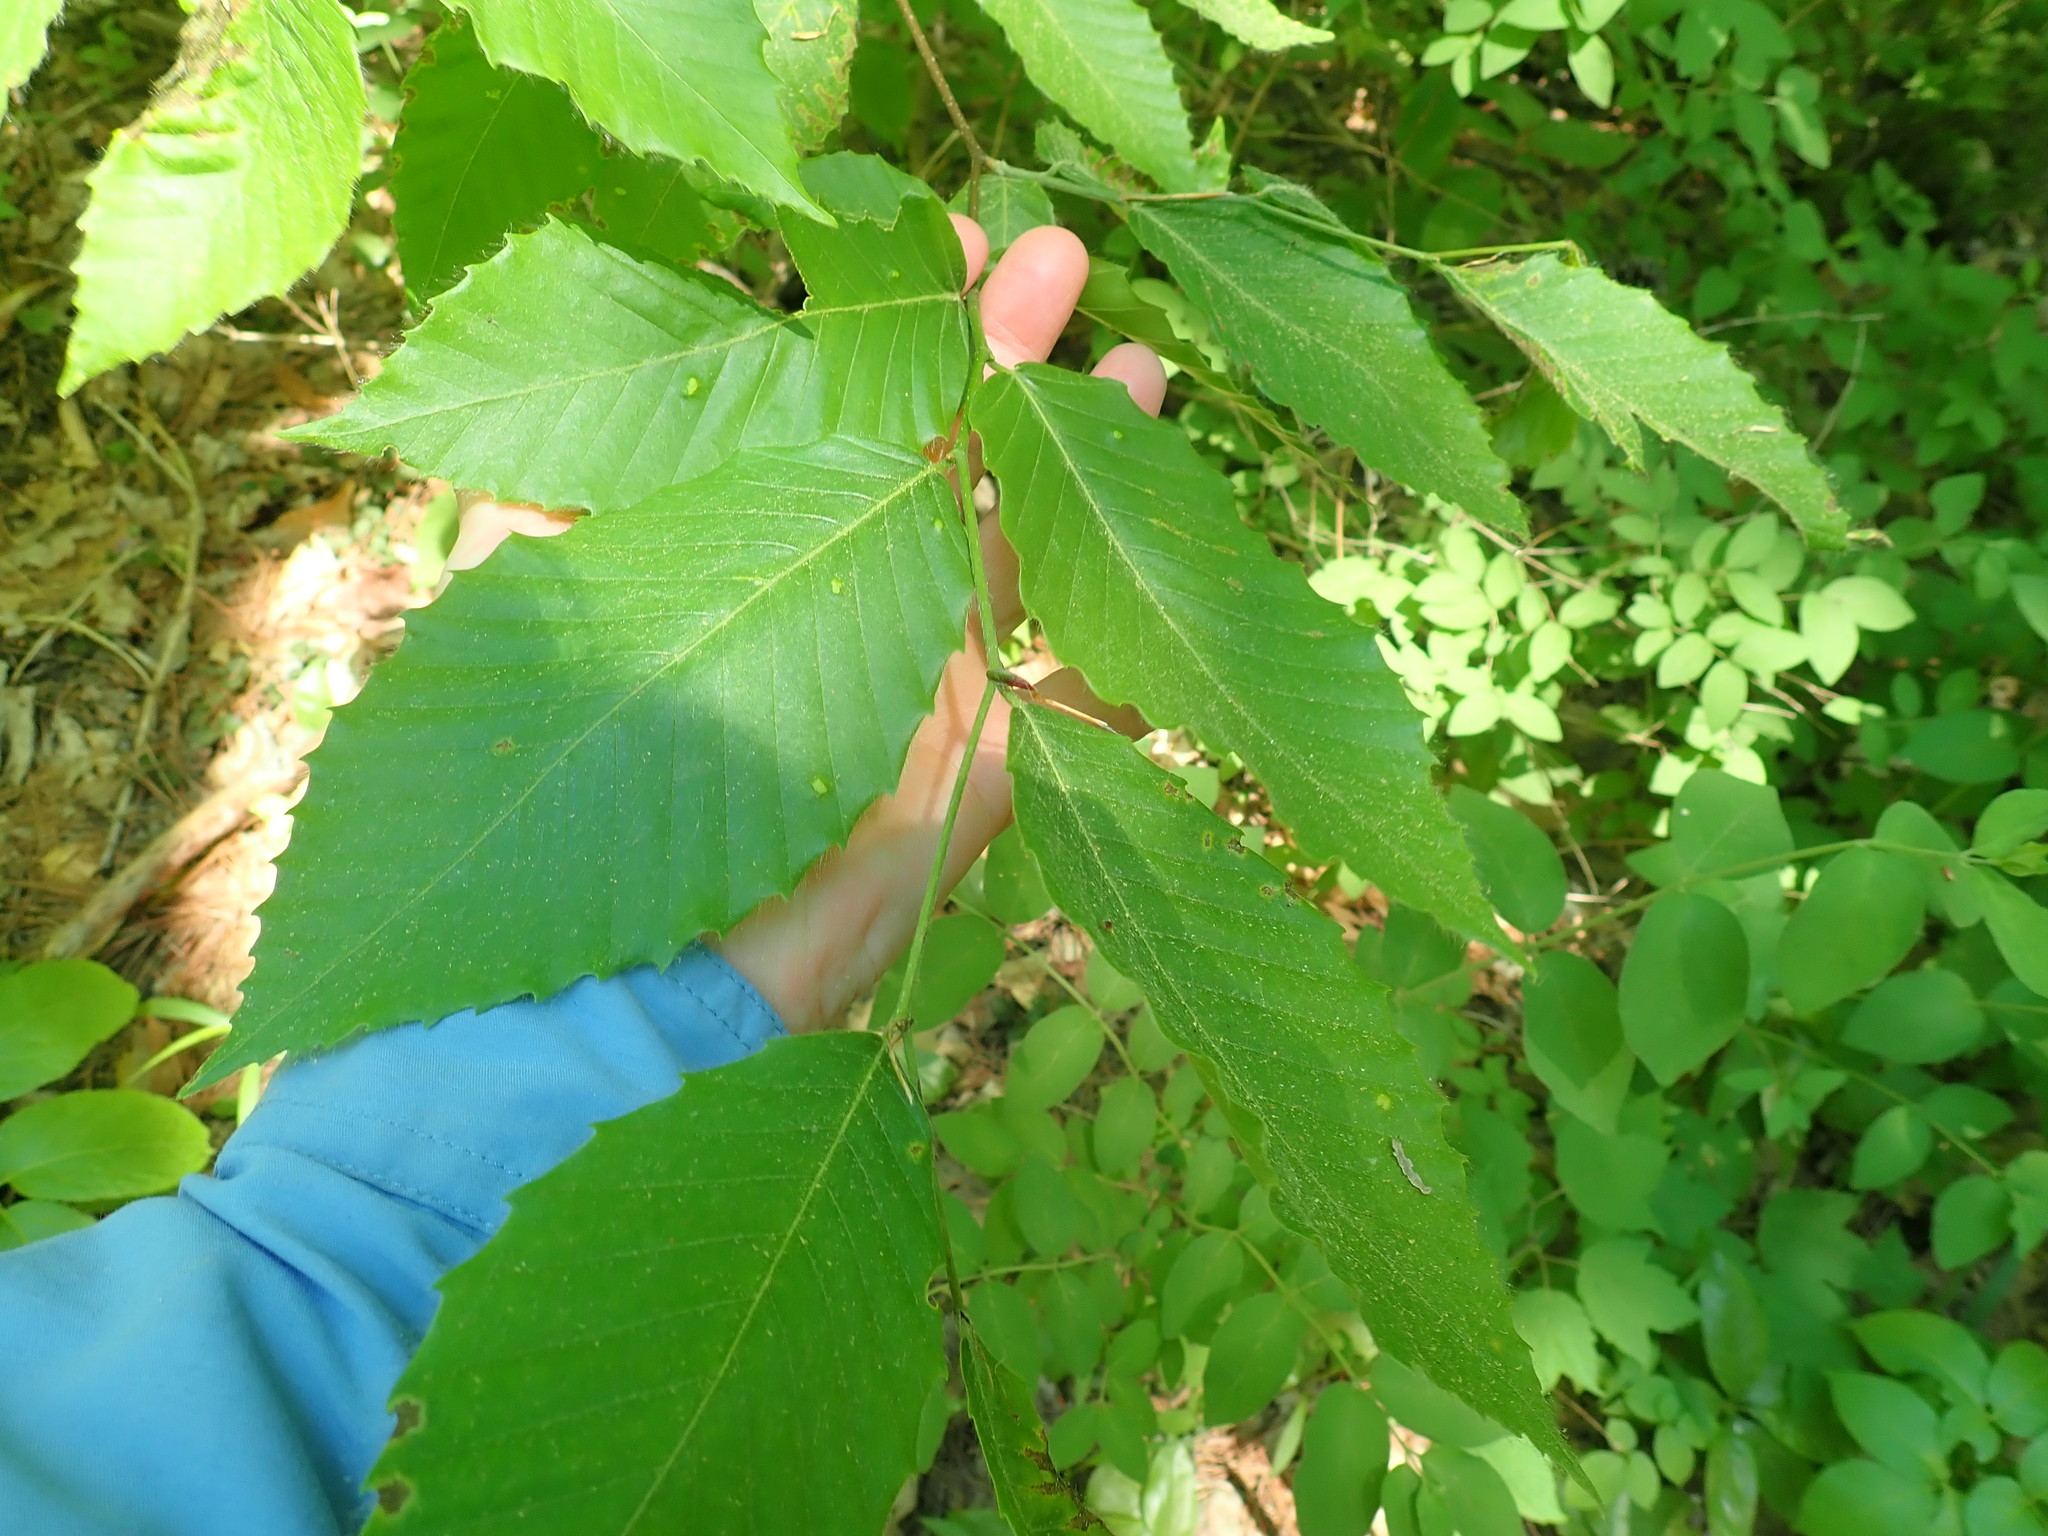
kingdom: Plantae
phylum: Tracheophyta
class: Magnoliopsida
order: Fagales
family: Fagaceae
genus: Fagus
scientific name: Fagus grandifolia
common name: American beech
